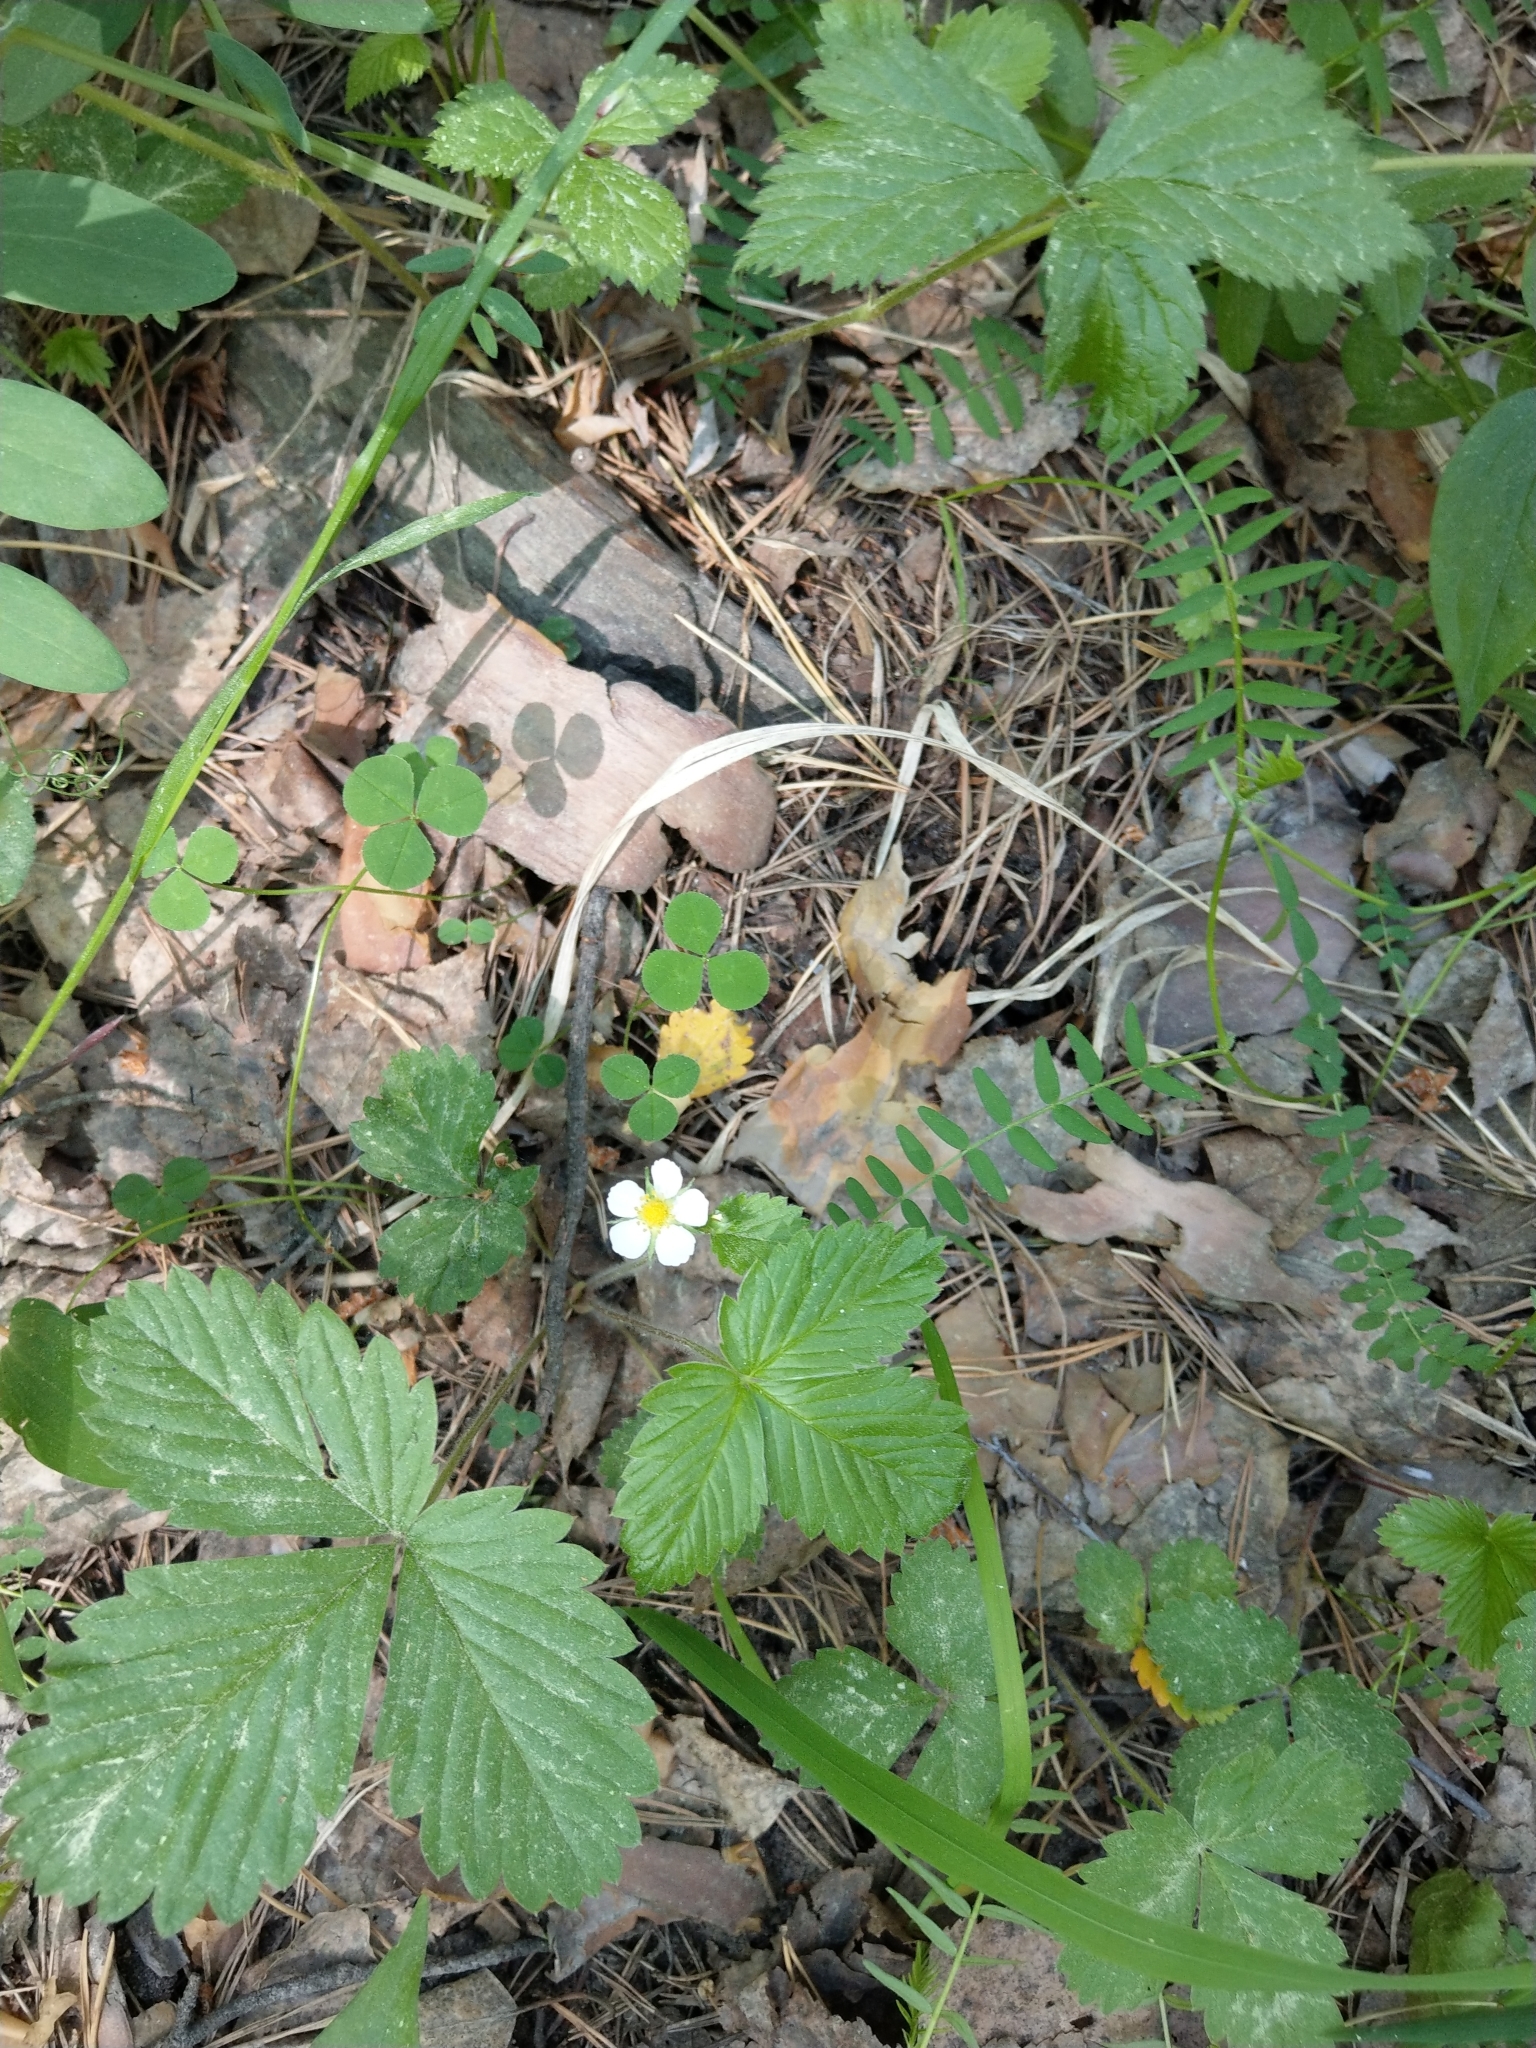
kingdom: Plantae
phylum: Tracheophyta
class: Magnoliopsida
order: Rosales
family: Rosaceae
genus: Fragaria
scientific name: Fragaria vesca
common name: Wild strawberry
